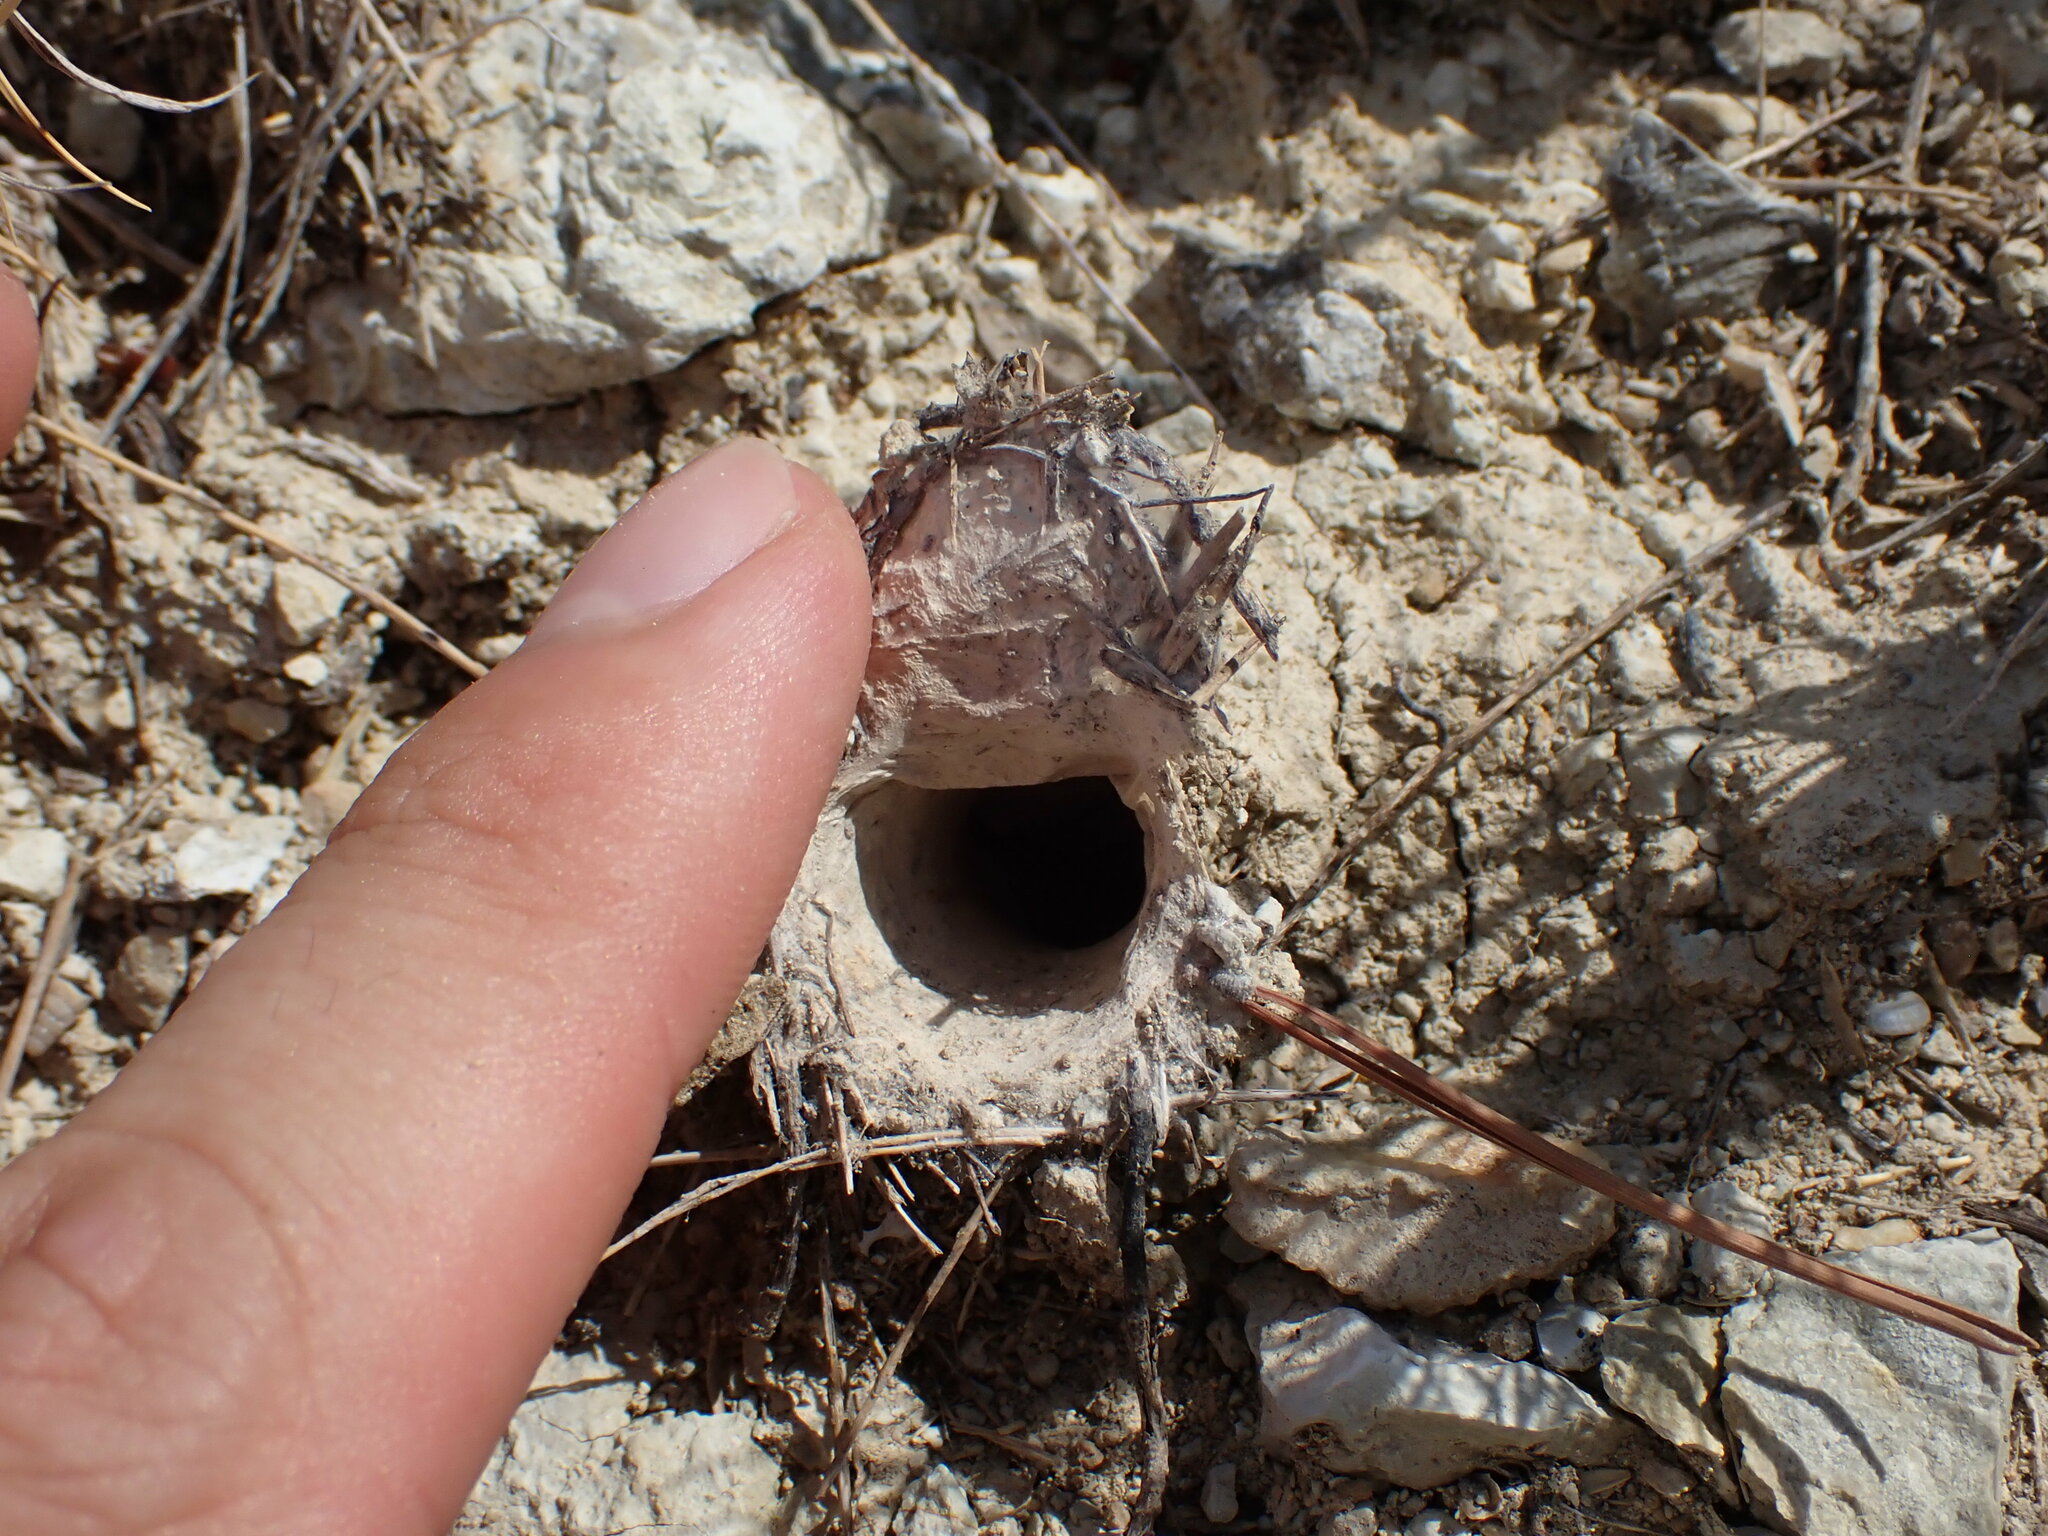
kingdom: Animalia
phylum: Arthropoda
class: Arachnida
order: Araneae
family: Nemesiidae
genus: Nemesia
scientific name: Nemesia
